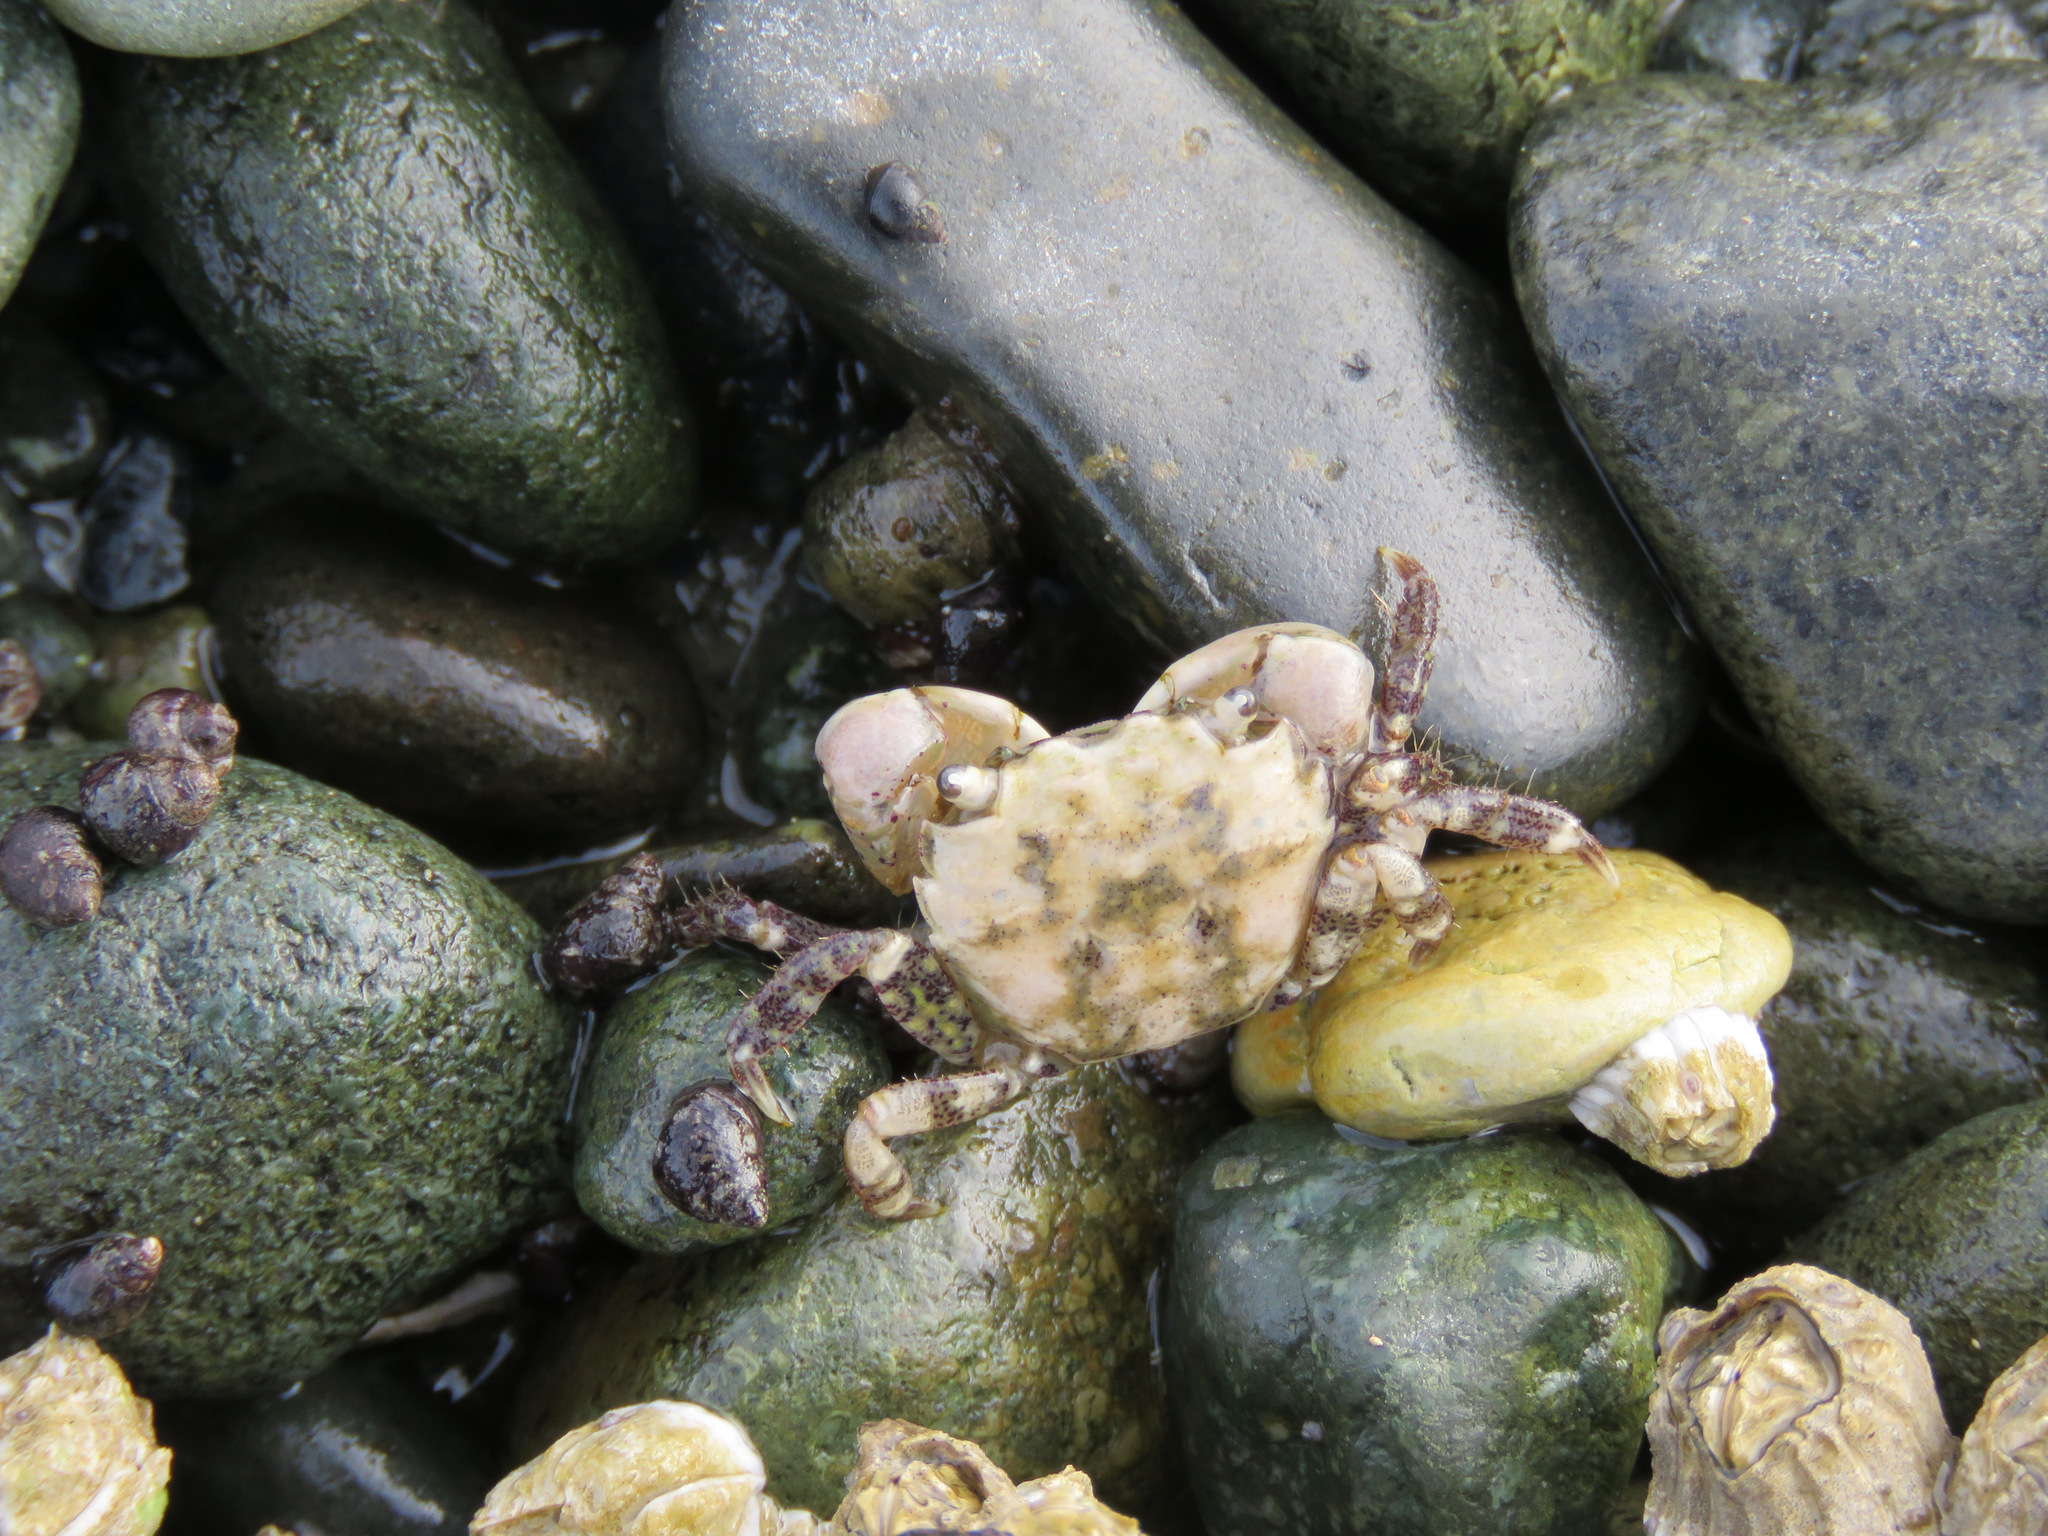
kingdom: Animalia
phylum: Arthropoda
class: Malacostraca
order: Decapoda
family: Varunidae
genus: Hemigrapsus
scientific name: Hemigrapsus oregonensis
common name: Yellow shore crab
